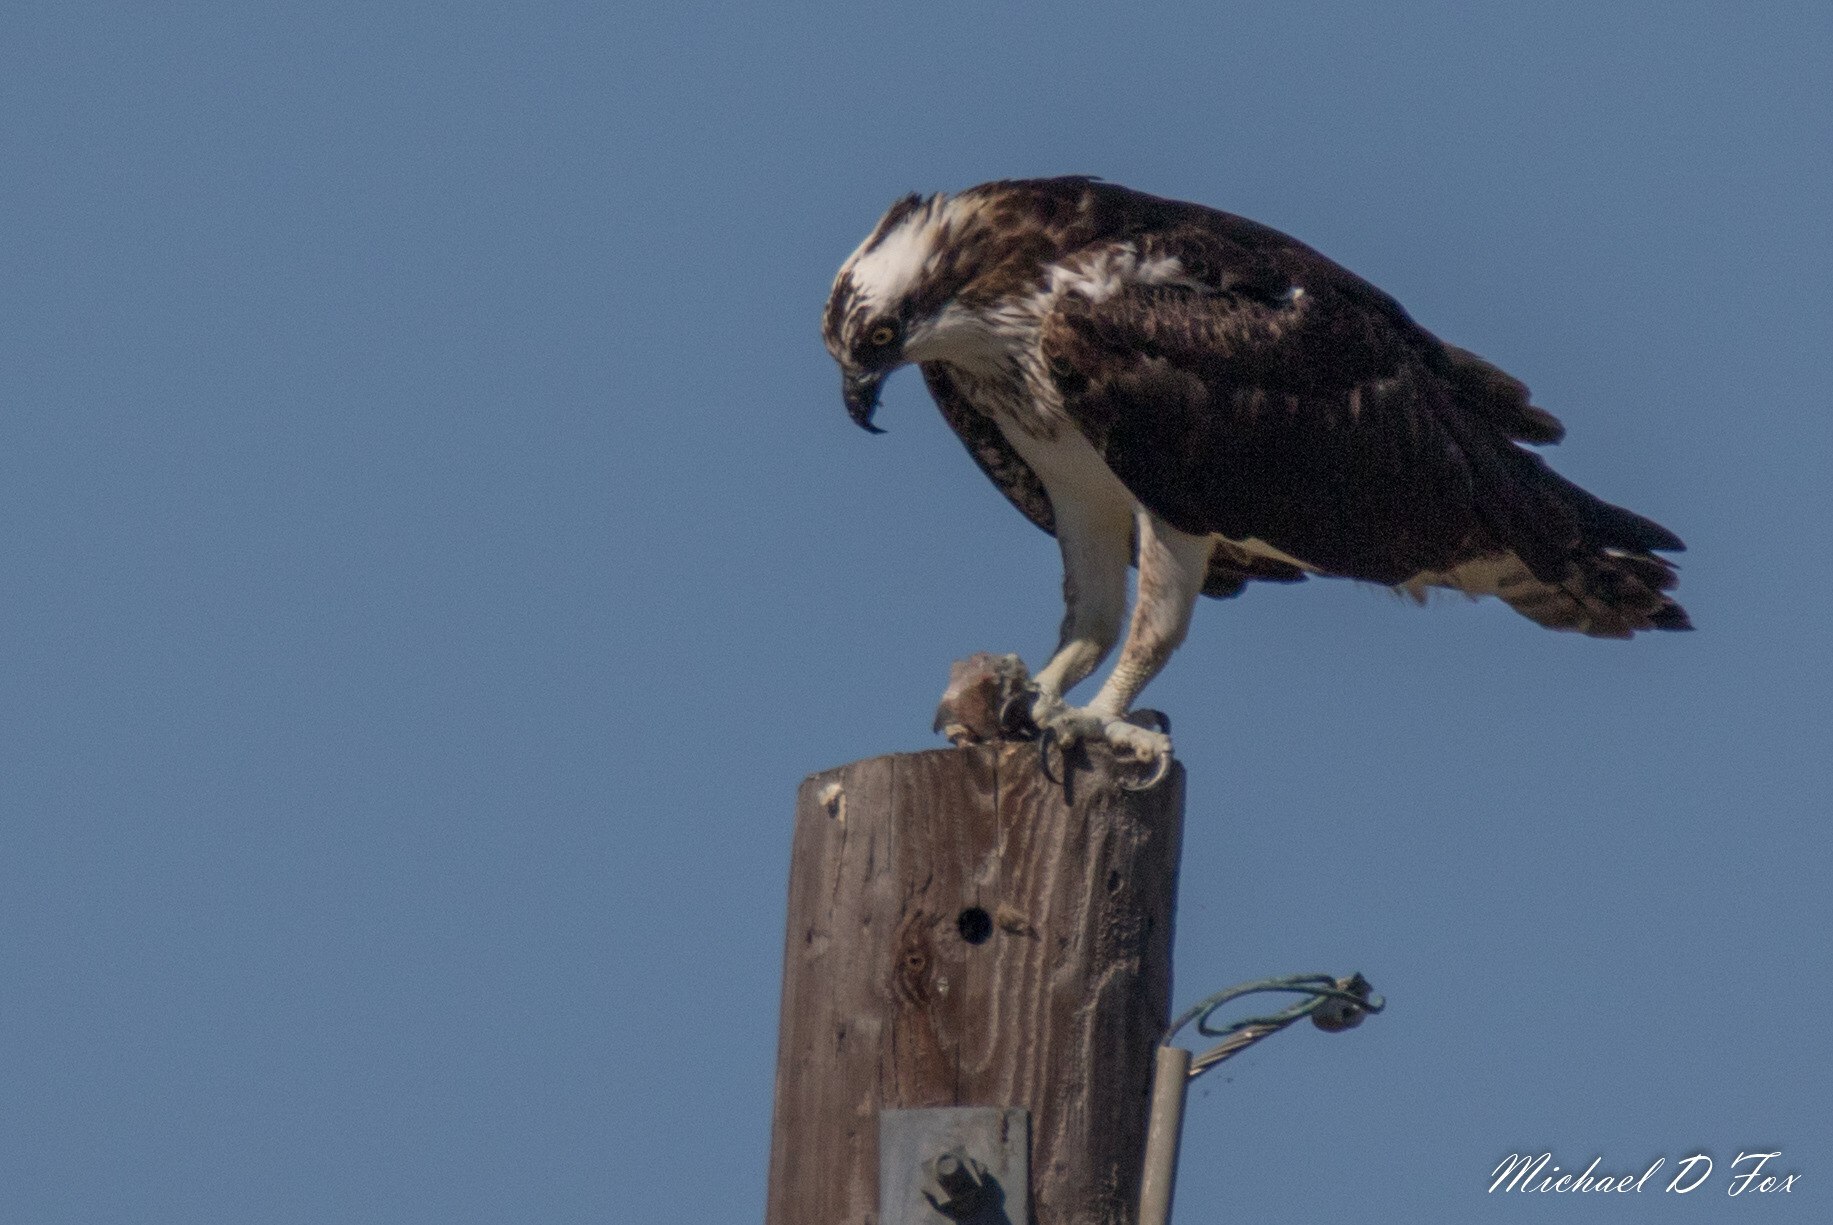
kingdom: Animalia
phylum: Chordata
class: Aves
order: Accipitriformes
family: Pandionidae
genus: Pandion
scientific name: Pandion haliaetus
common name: Osprey
